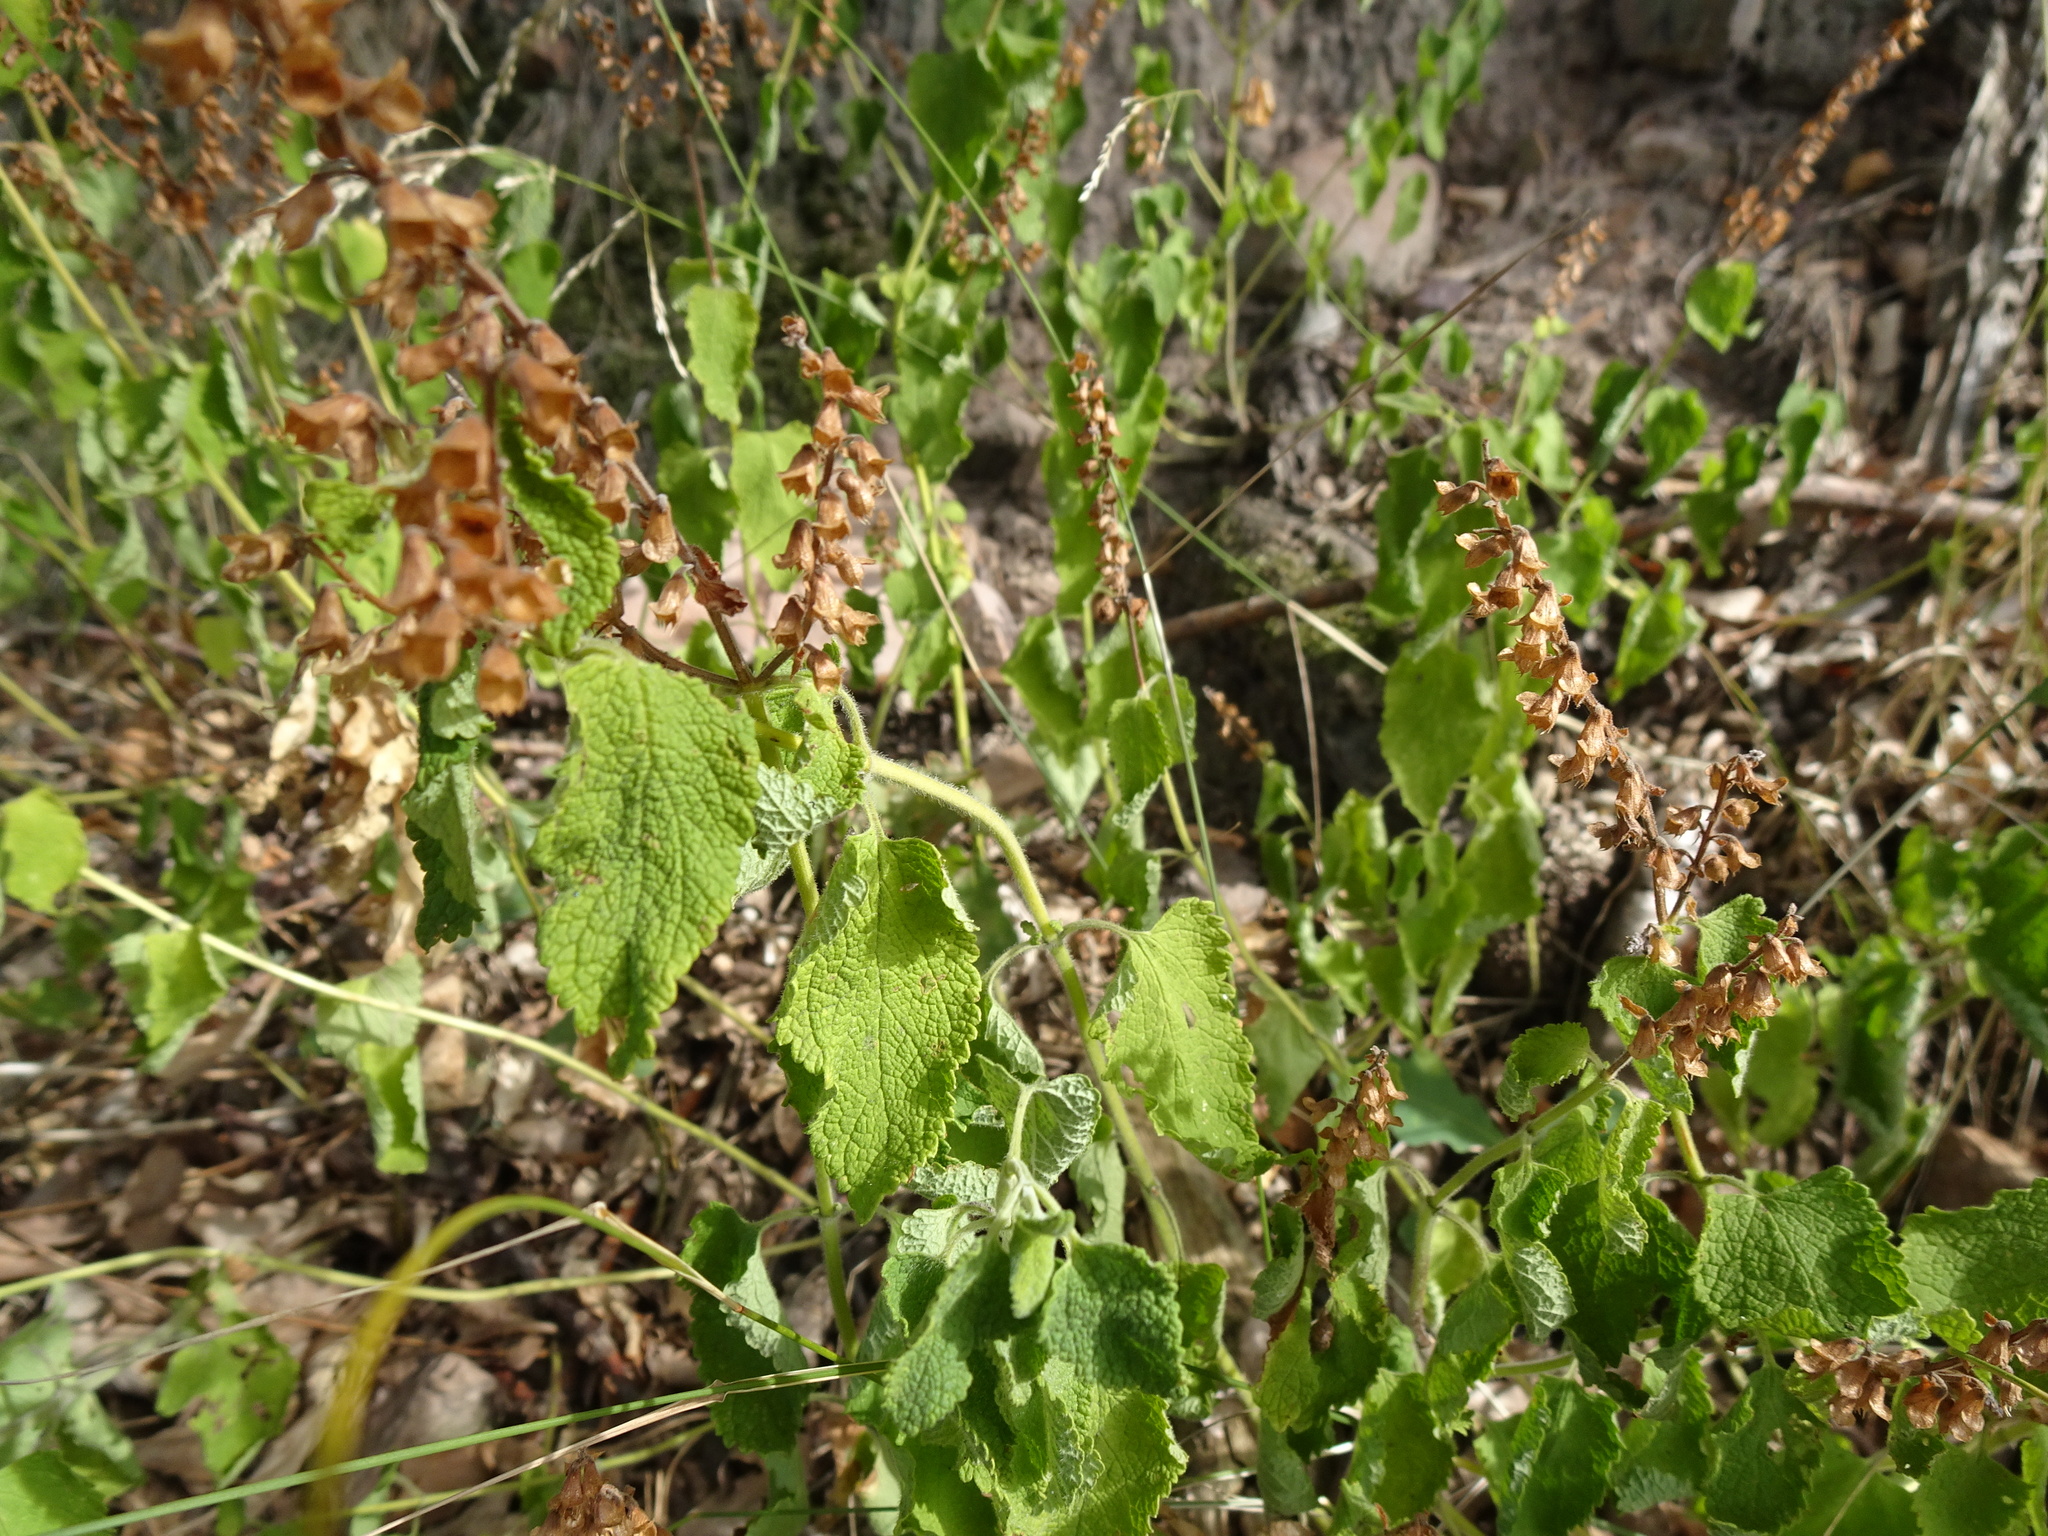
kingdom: Plantae
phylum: Tracheophyta
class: Magnoliopsida
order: Lamiales
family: Lamiaceae
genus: Teucrium
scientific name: Teucrium scorodonia
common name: Woodland germander
